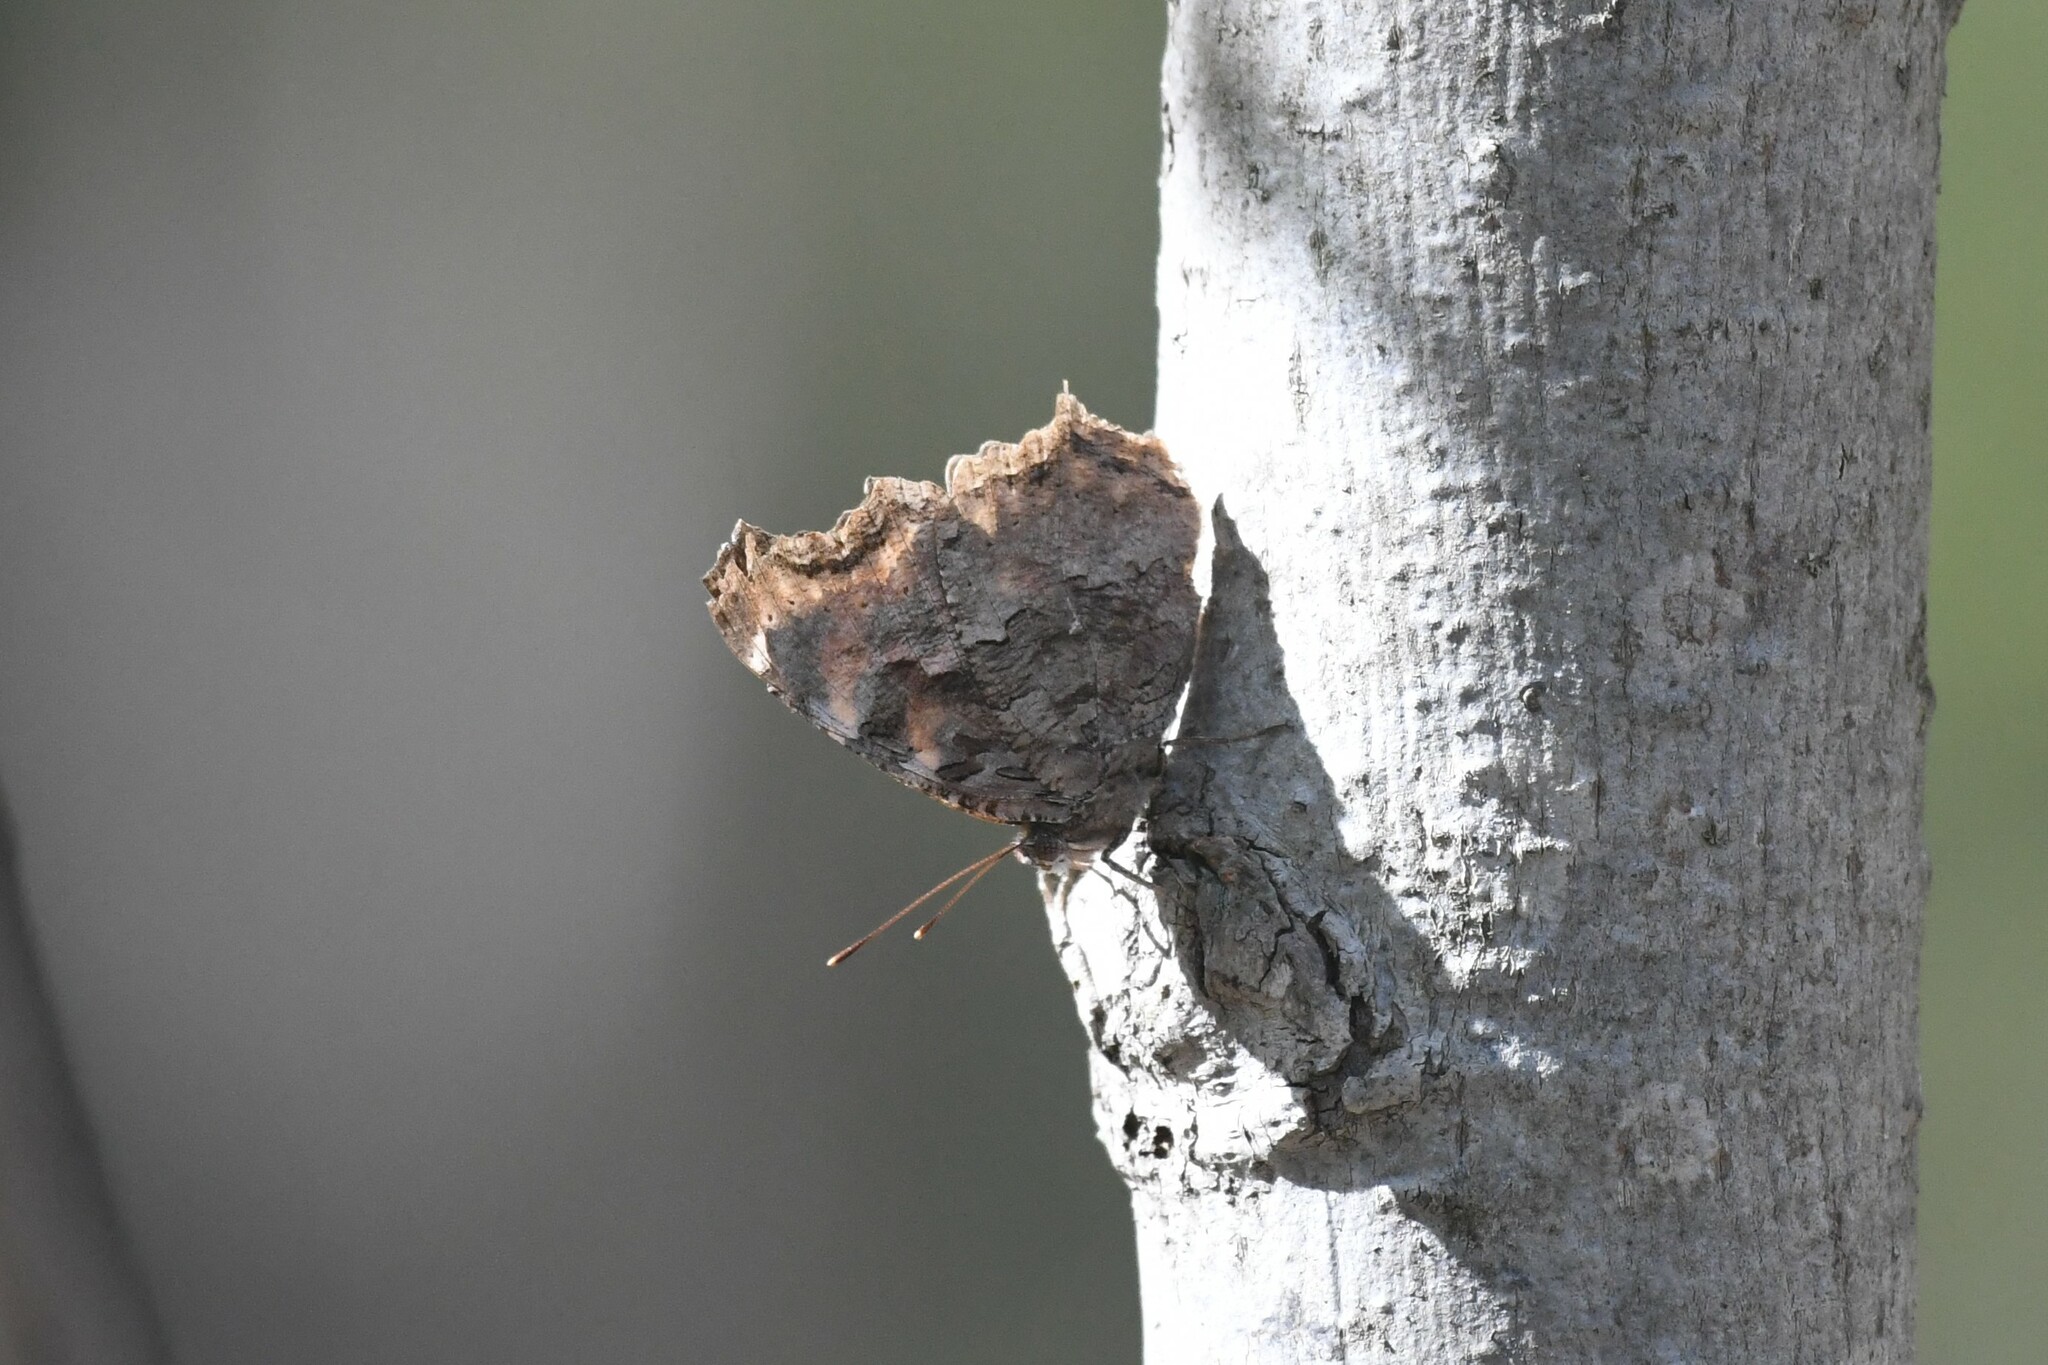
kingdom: Animalia
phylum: Arthropoda
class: Insecta
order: Lepidoptera
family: Nymphalidae
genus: Polygonia
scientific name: Polygonia vaualbum
